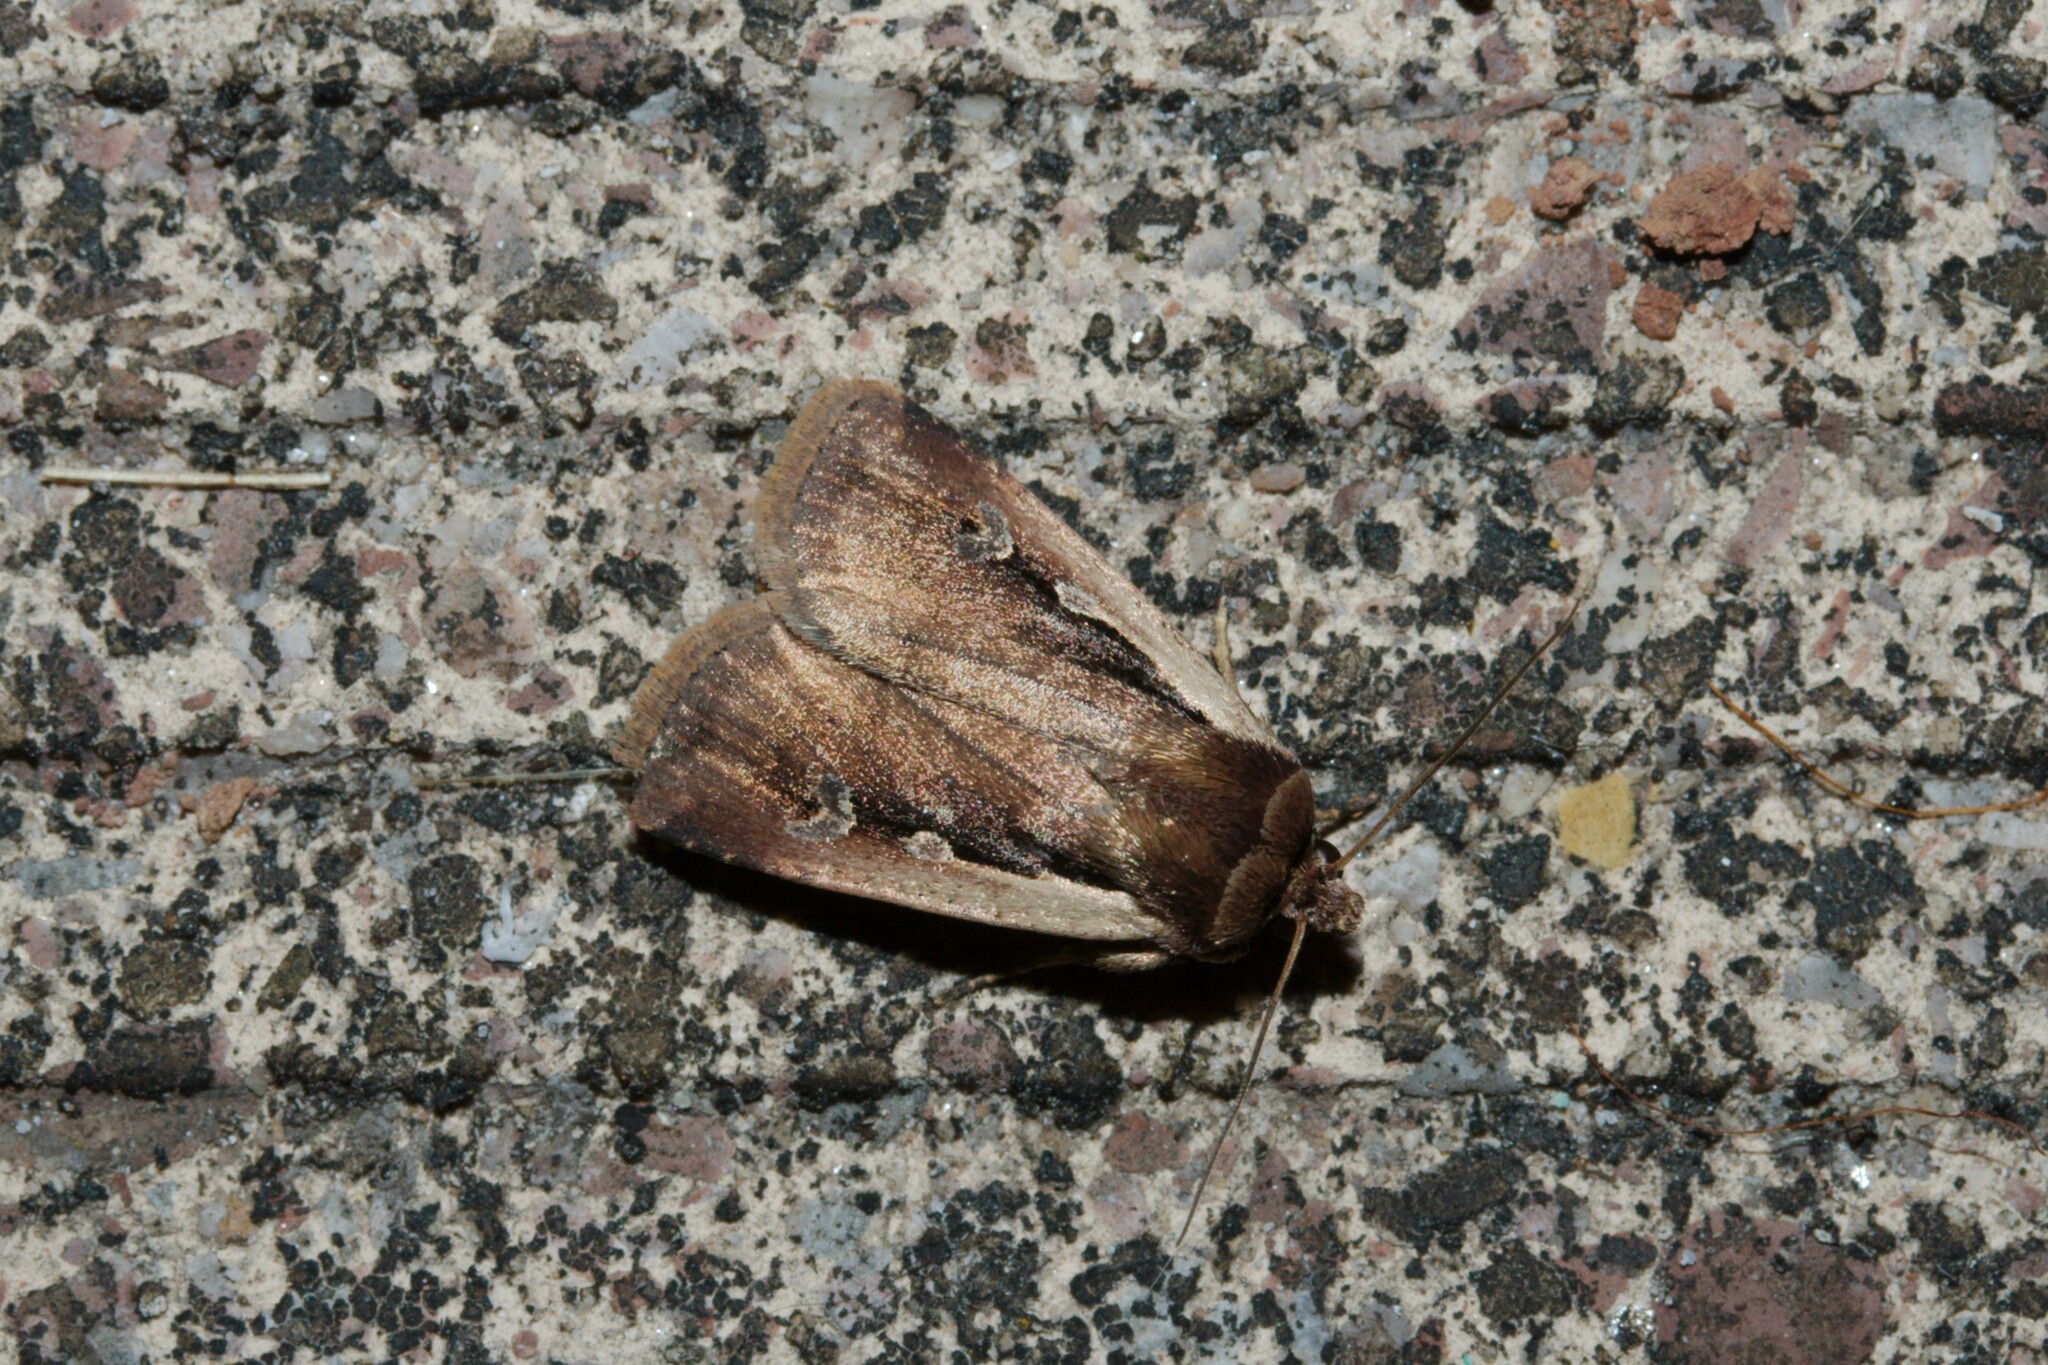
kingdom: Animalia
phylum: Arthropoda
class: Insecta
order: Lepidoptera
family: Noctuidae
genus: Ochropleura
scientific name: Ochropleura plecta
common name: Flame shoulder
